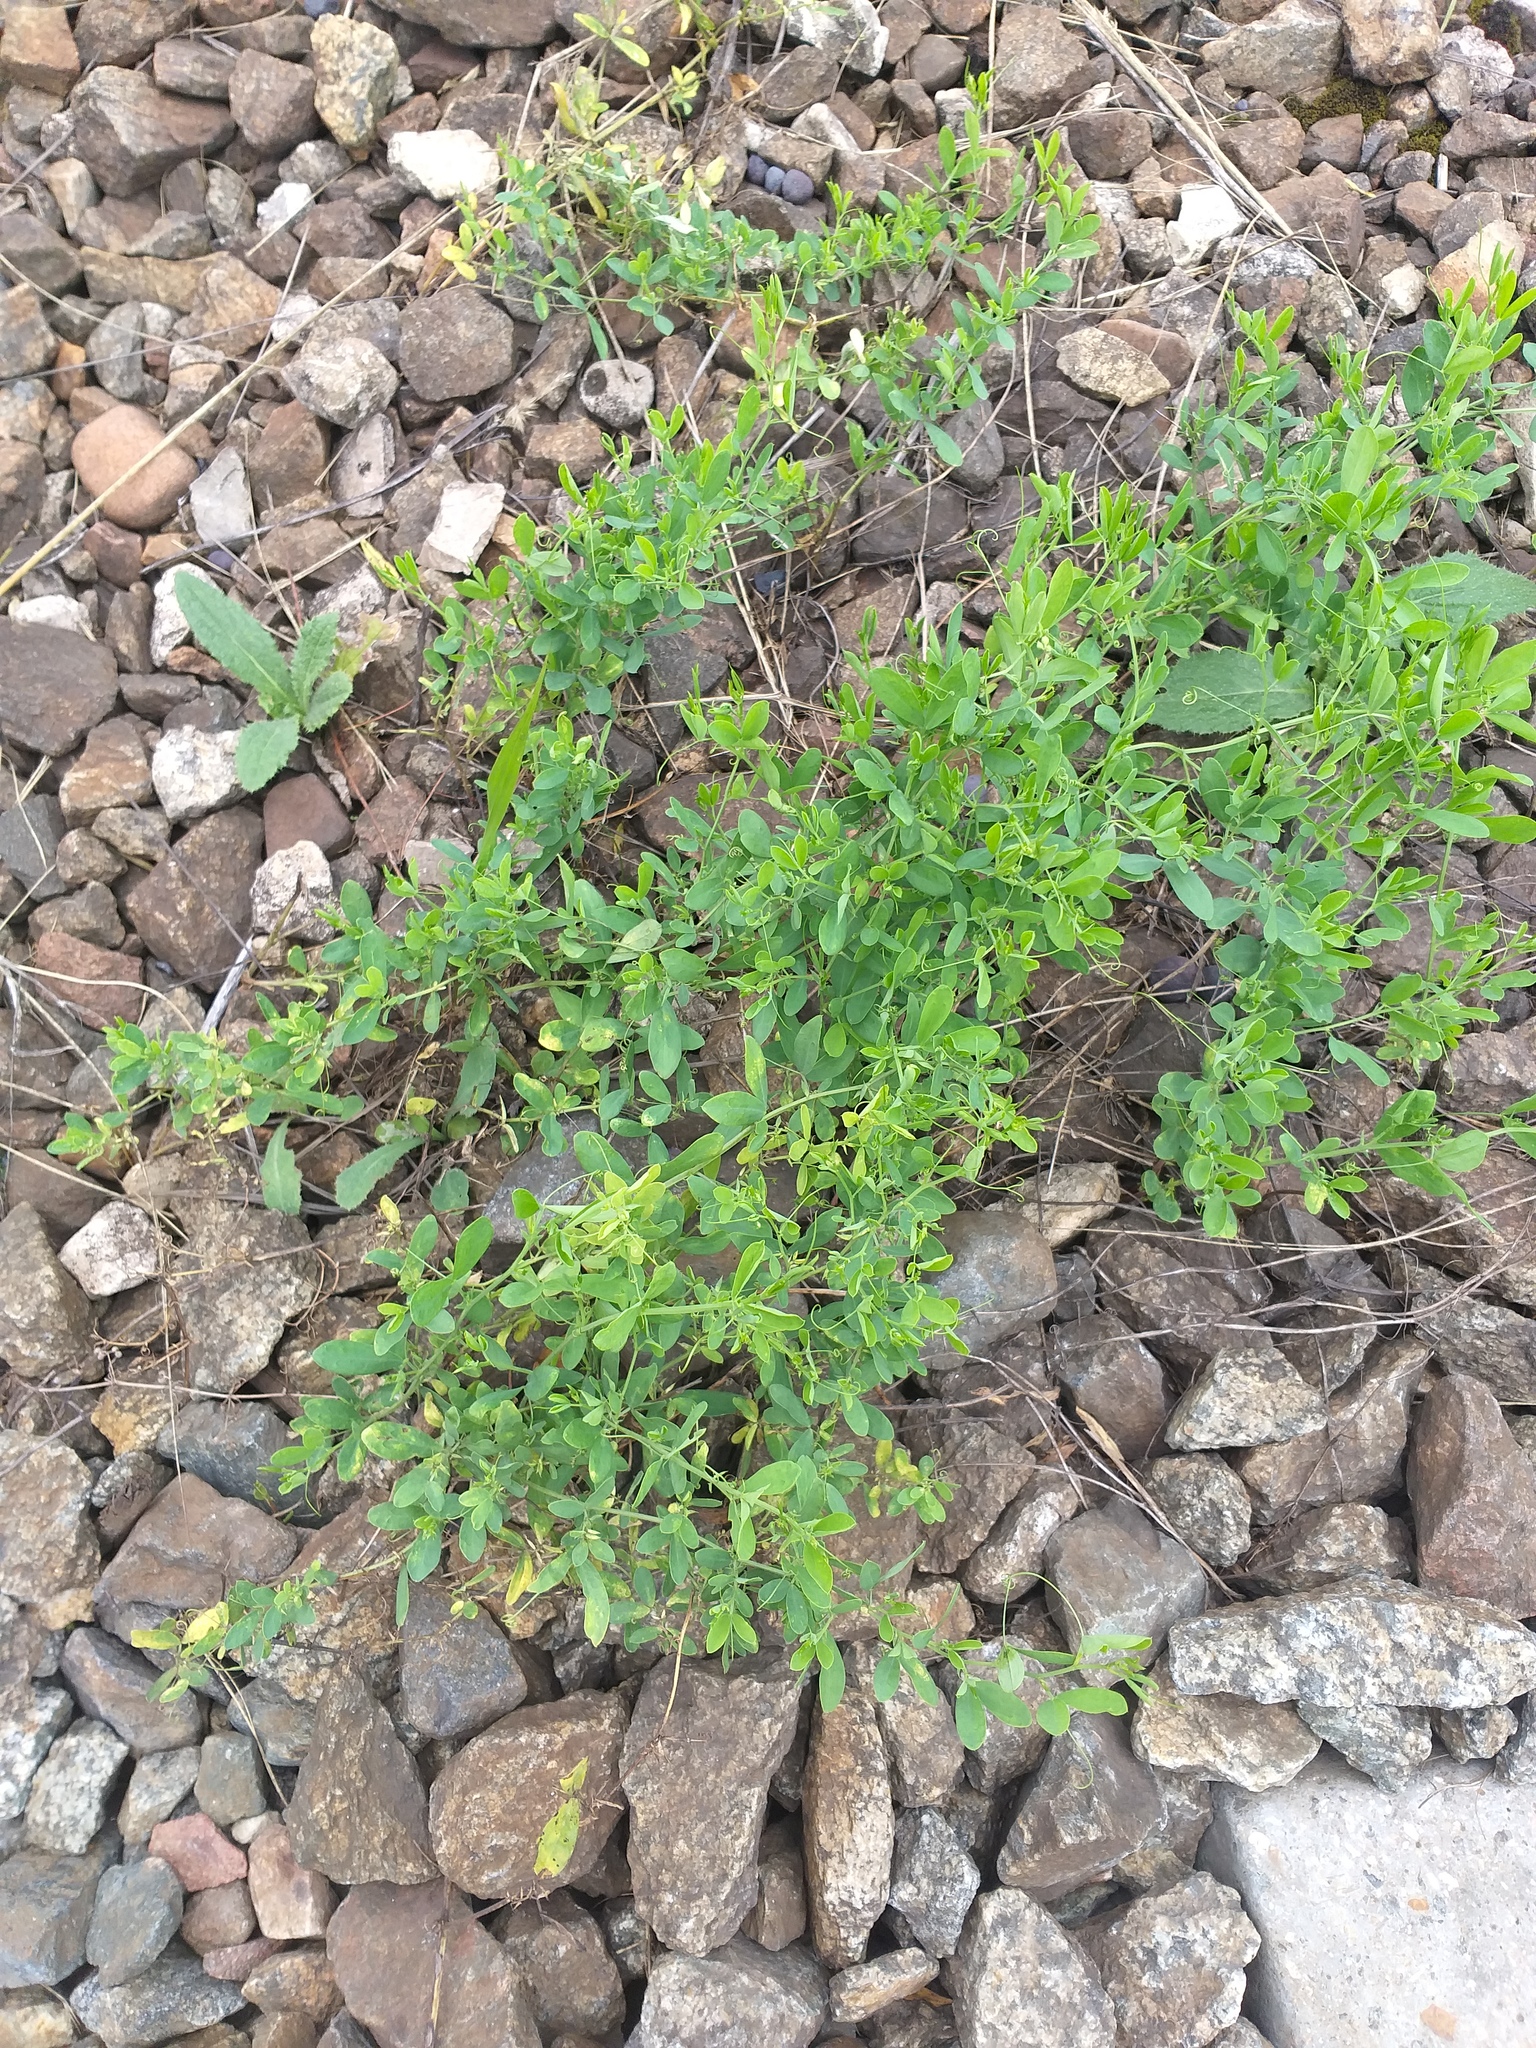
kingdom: Plantae
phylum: Tracheophyta
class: Magnoliopsida
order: Fabales
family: Fabaceae
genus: Lathyrus
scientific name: Lathyrus tuberosus
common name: Tuberous pea
